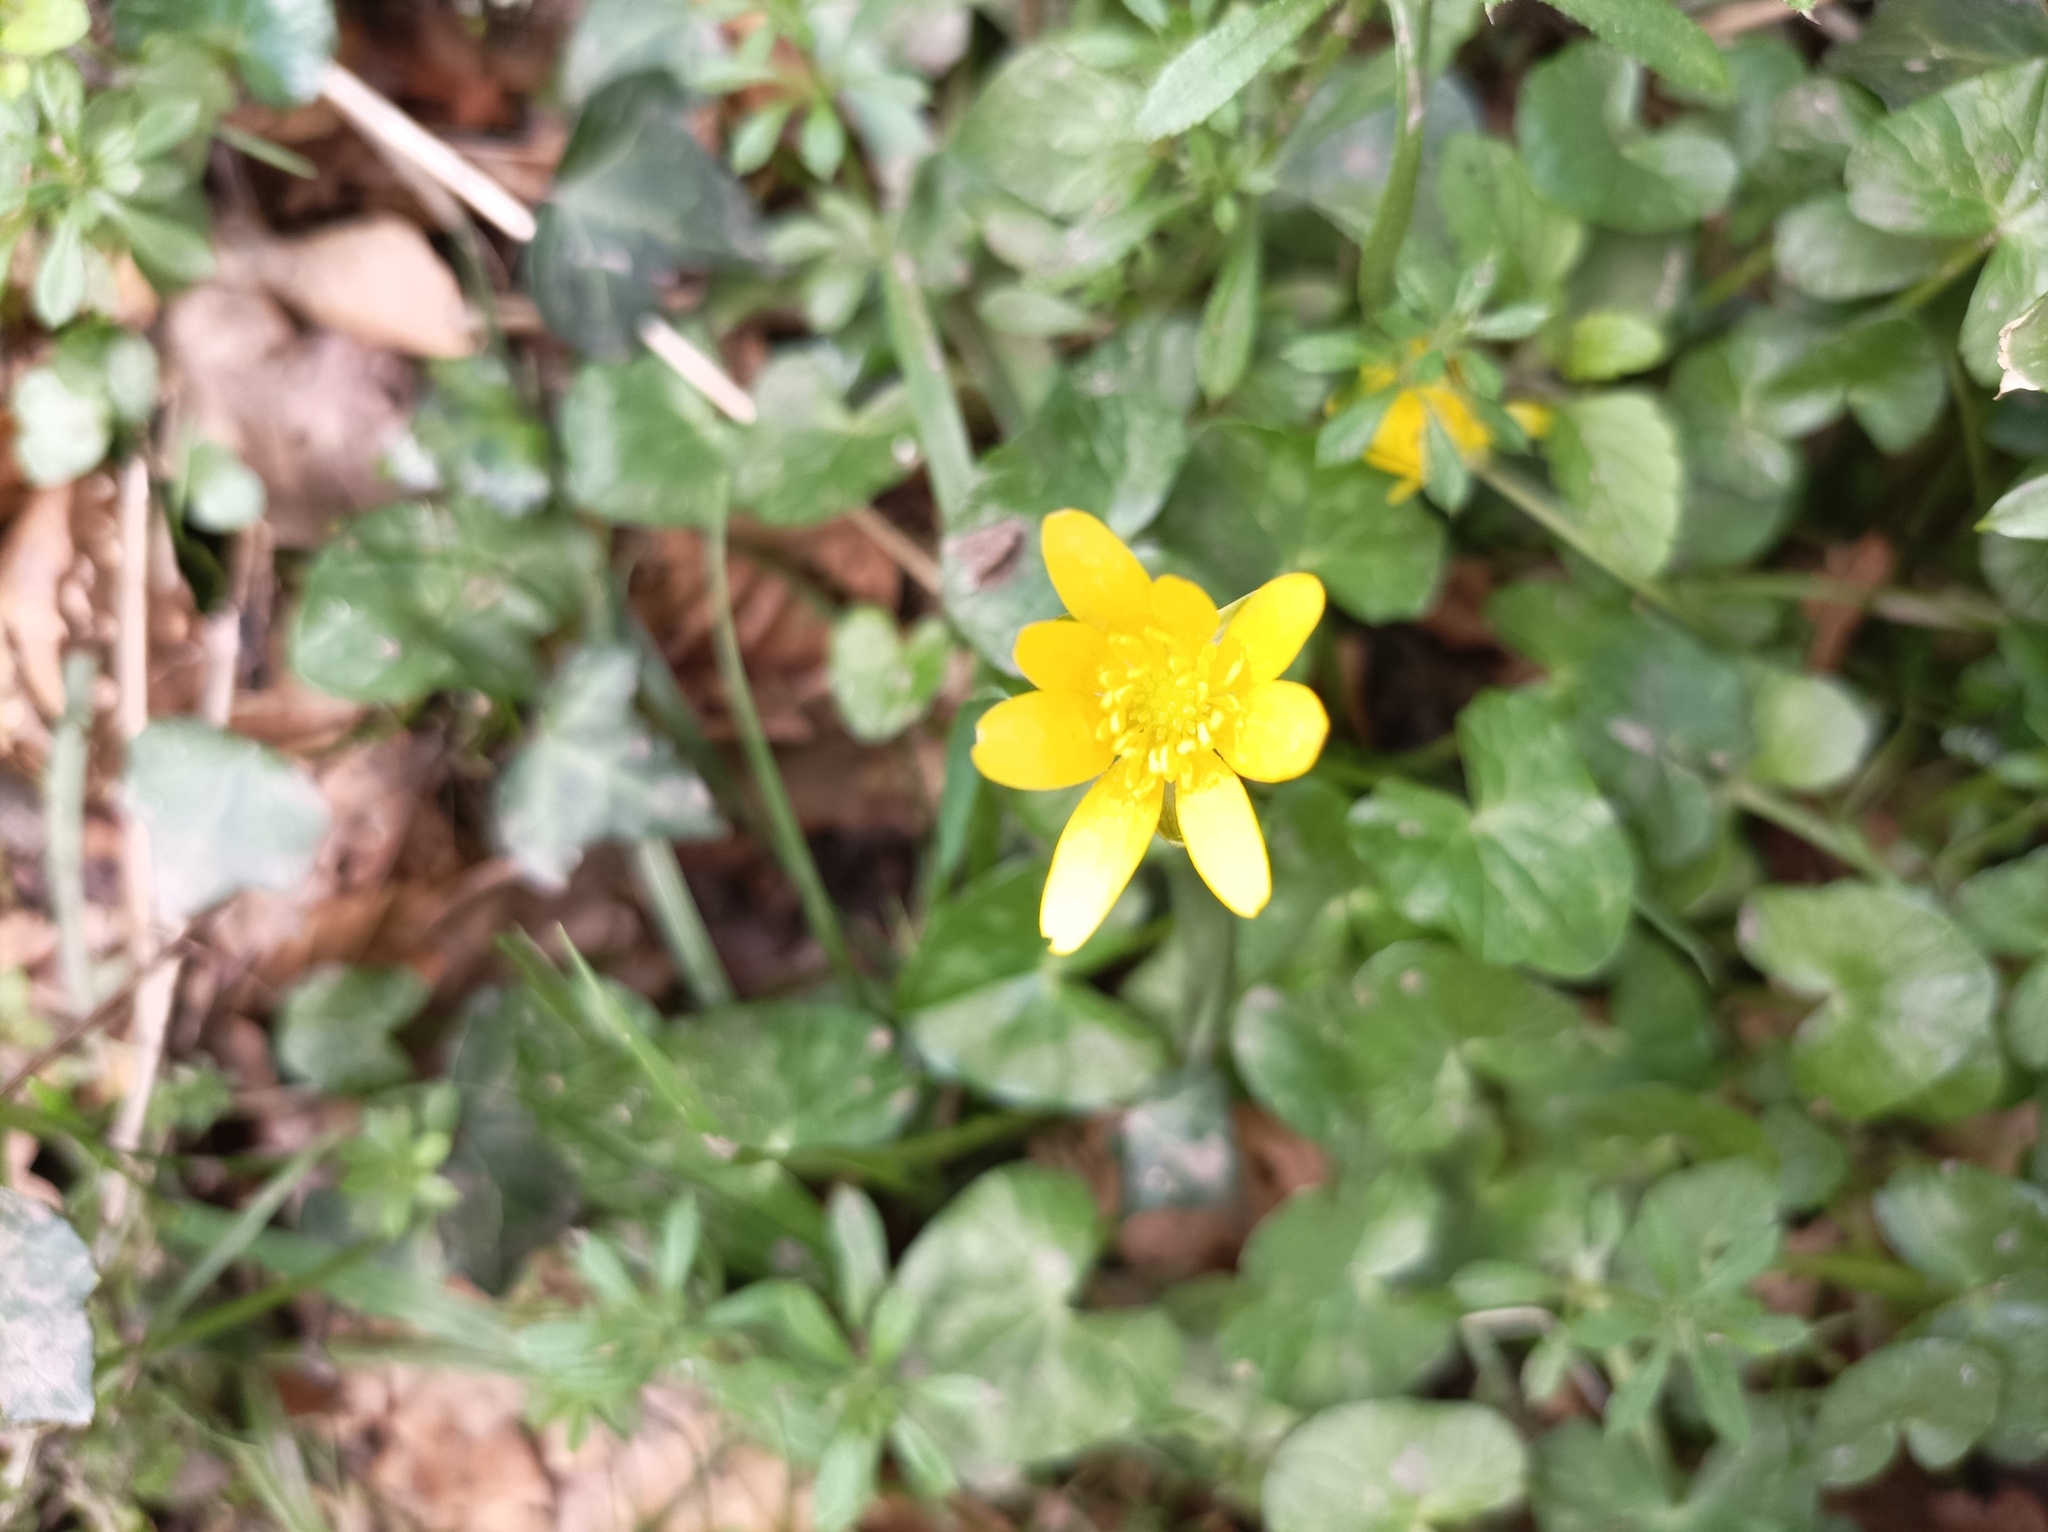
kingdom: Plantae
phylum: Tracheophyta
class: Magnoliopsida
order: Ranunculales
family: Ranunculaceae
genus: Ficaria
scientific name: Ficaria verna
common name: Lesser celandine
